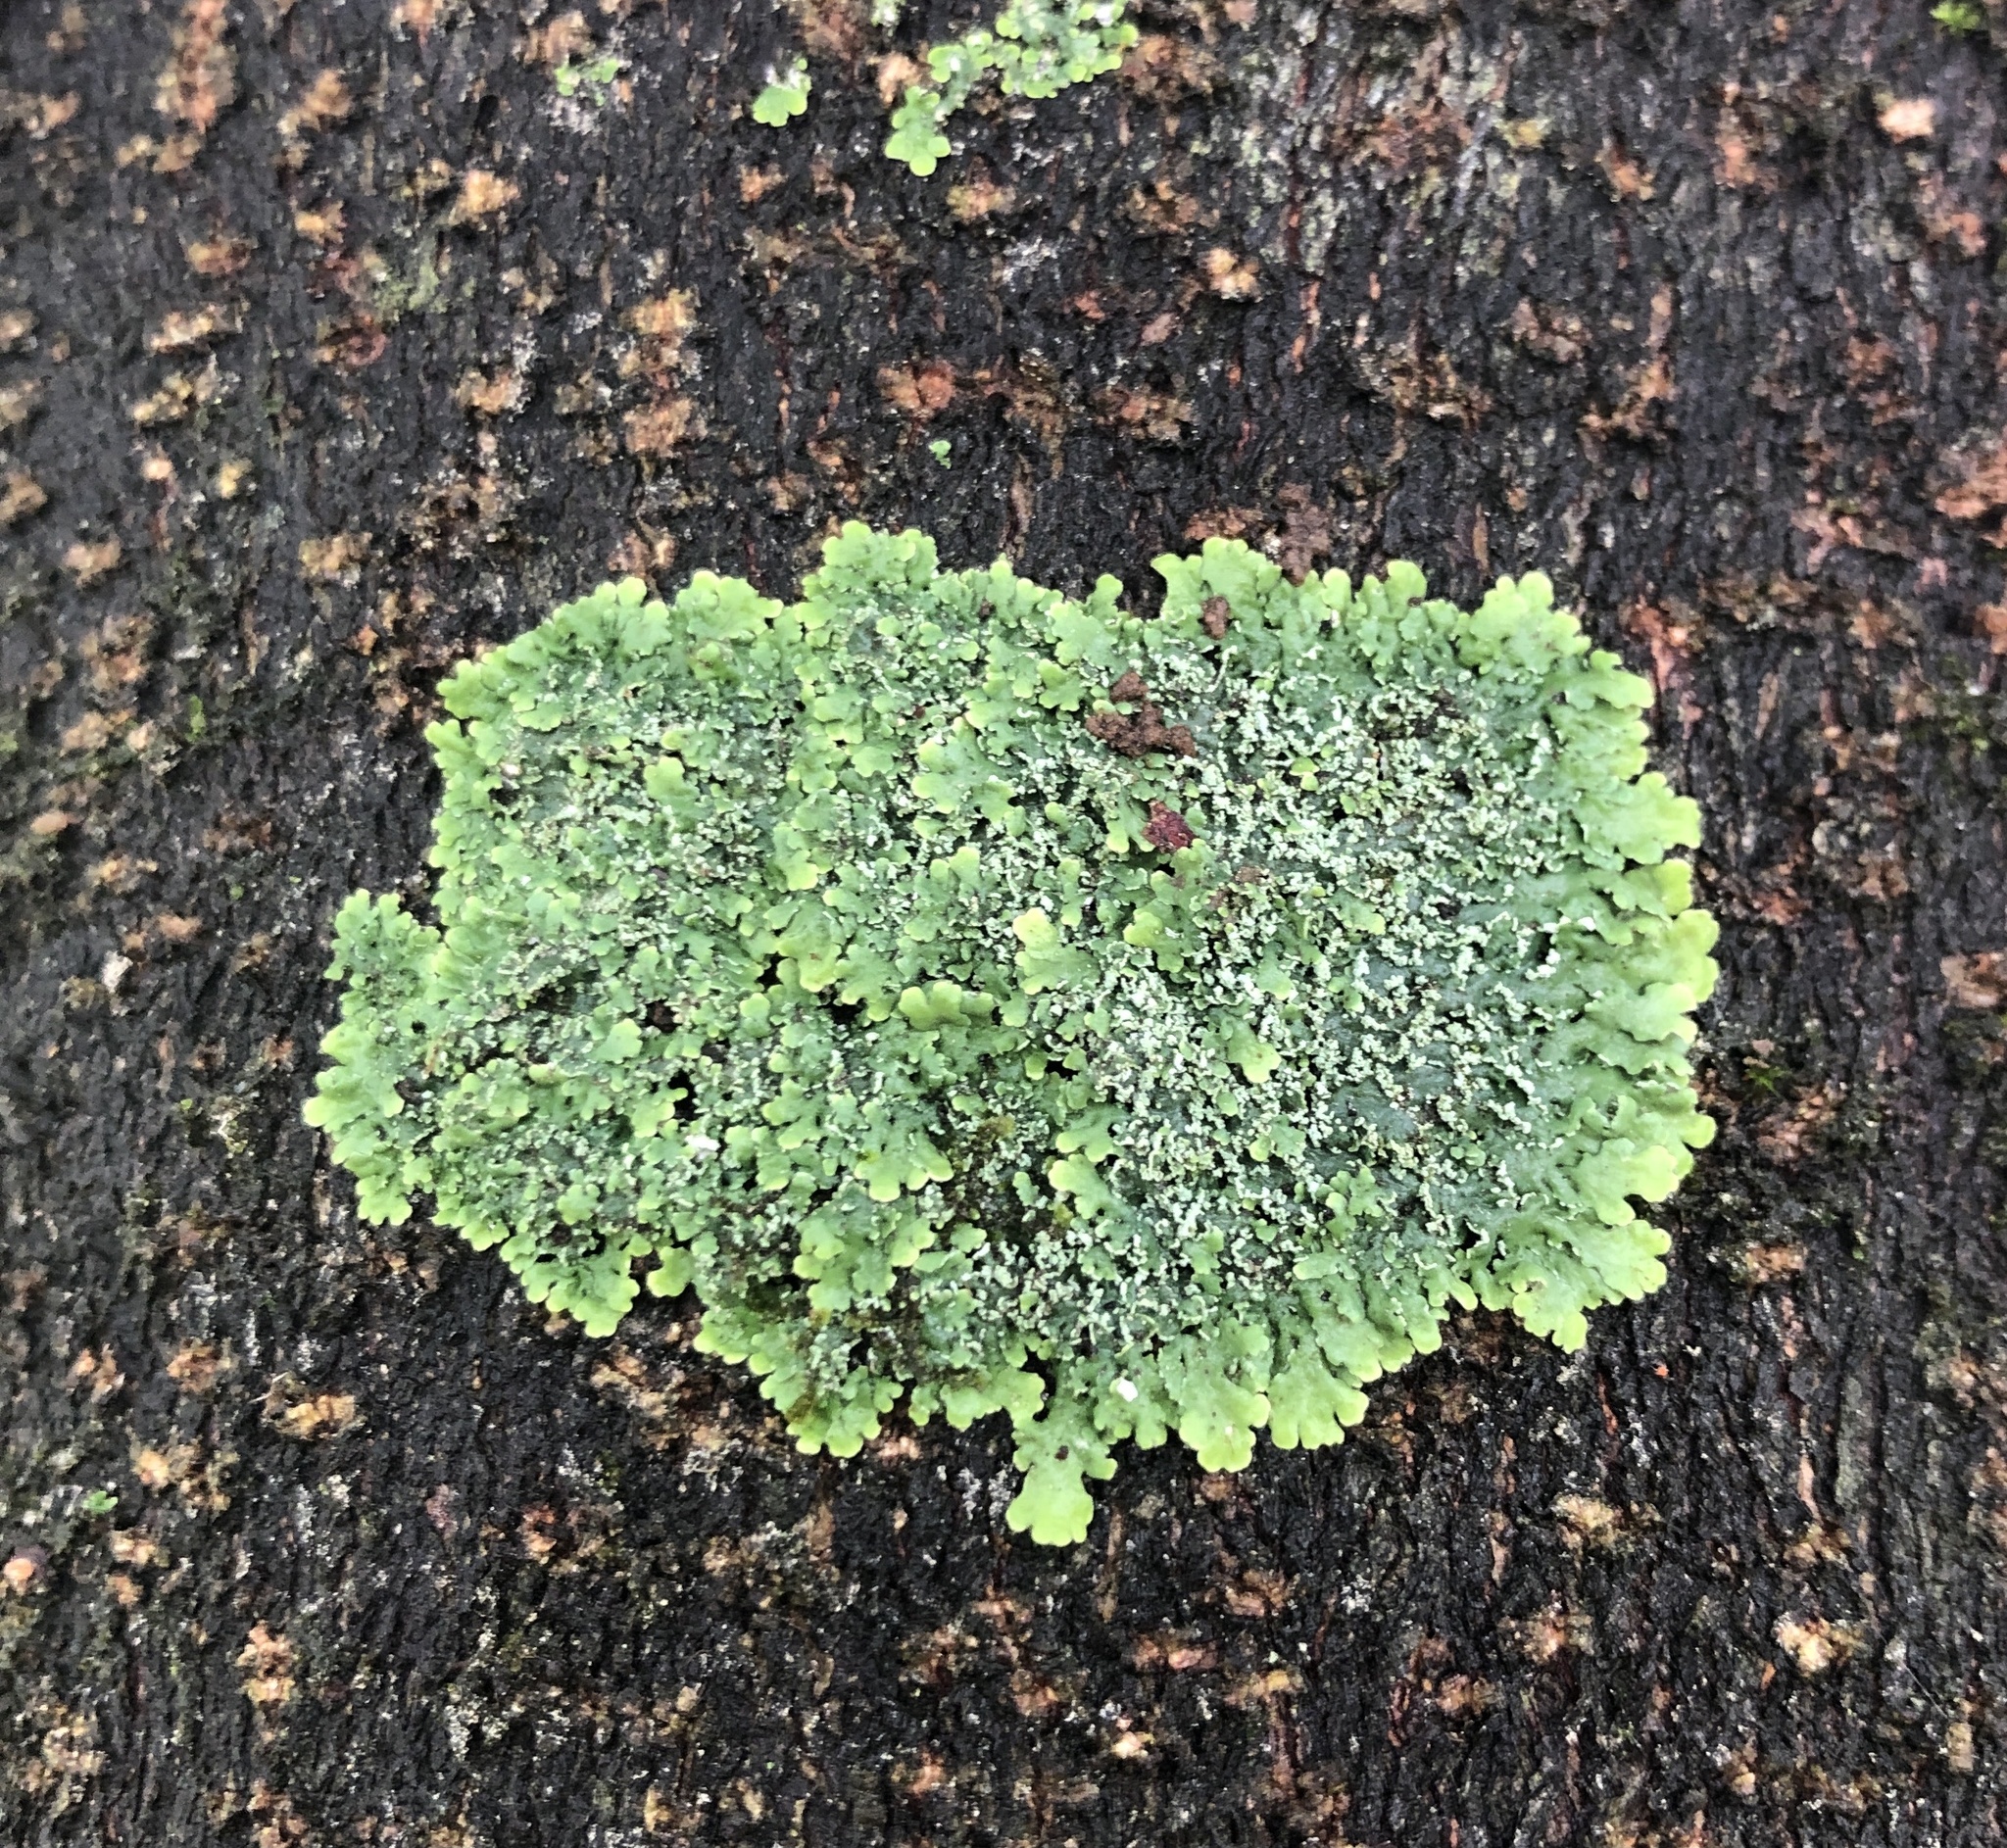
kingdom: Fungi
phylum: Ascomycota
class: Lecanoromycetes
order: Caliciales
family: Physciaceae
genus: Polyblastidium
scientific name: Polyblastidium albicans
